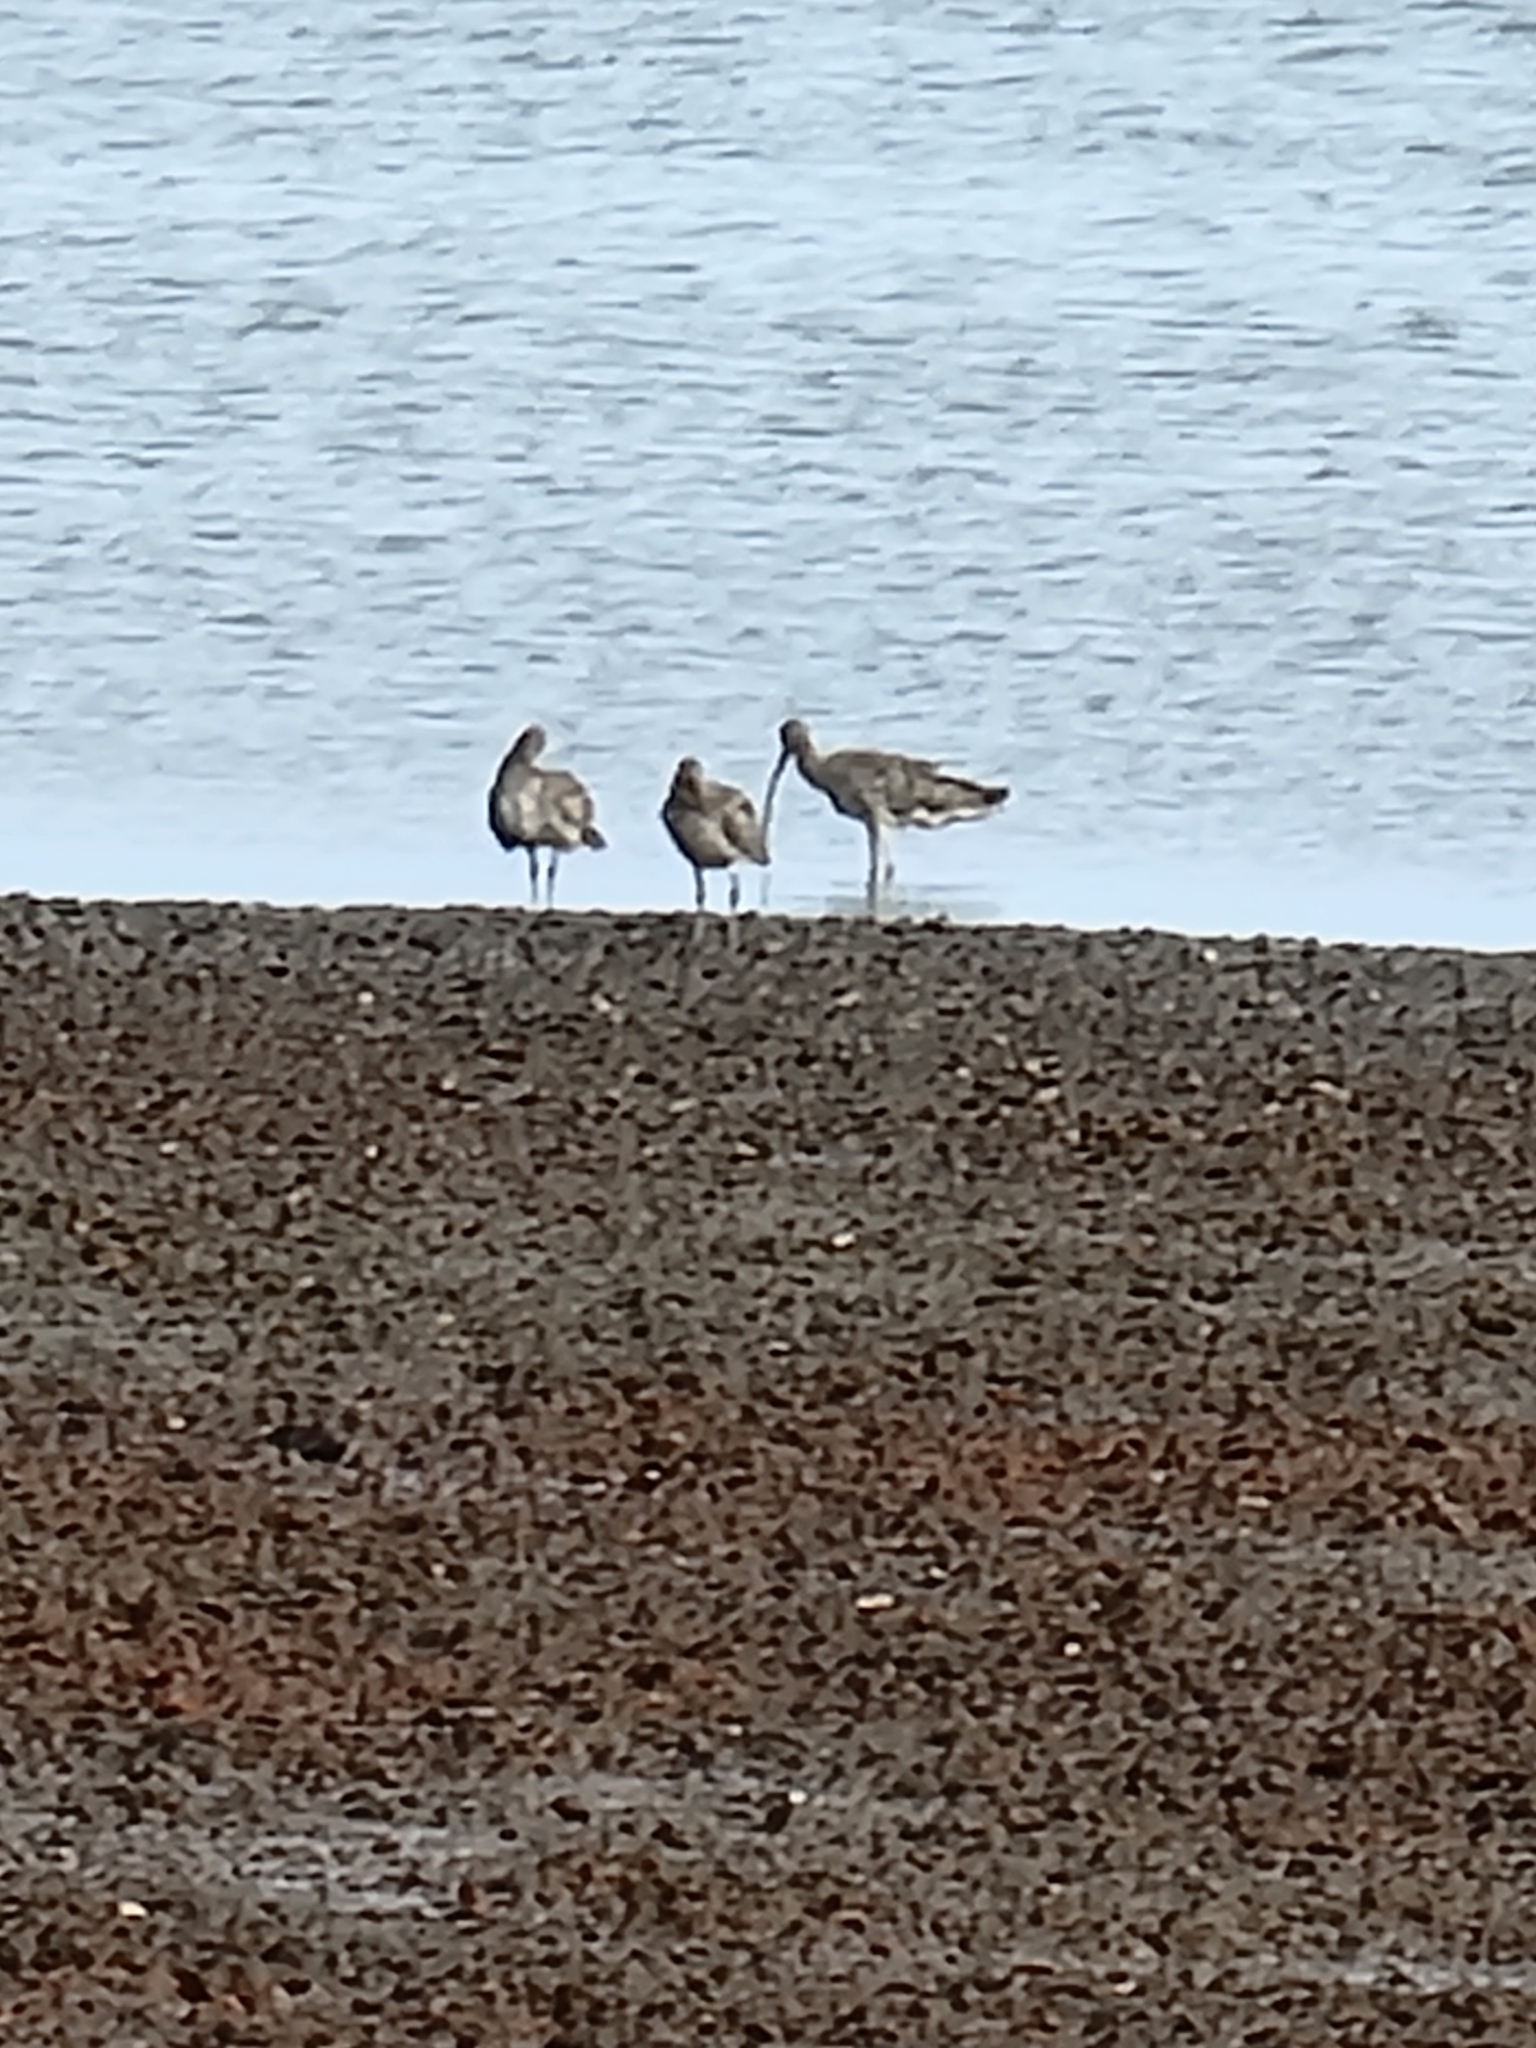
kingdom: Animalia
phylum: Chordata
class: Aves
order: Charadriiformes
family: Scolopacidae
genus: Numenius
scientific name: Numenius madagascariensis
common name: Far eastern curlew
